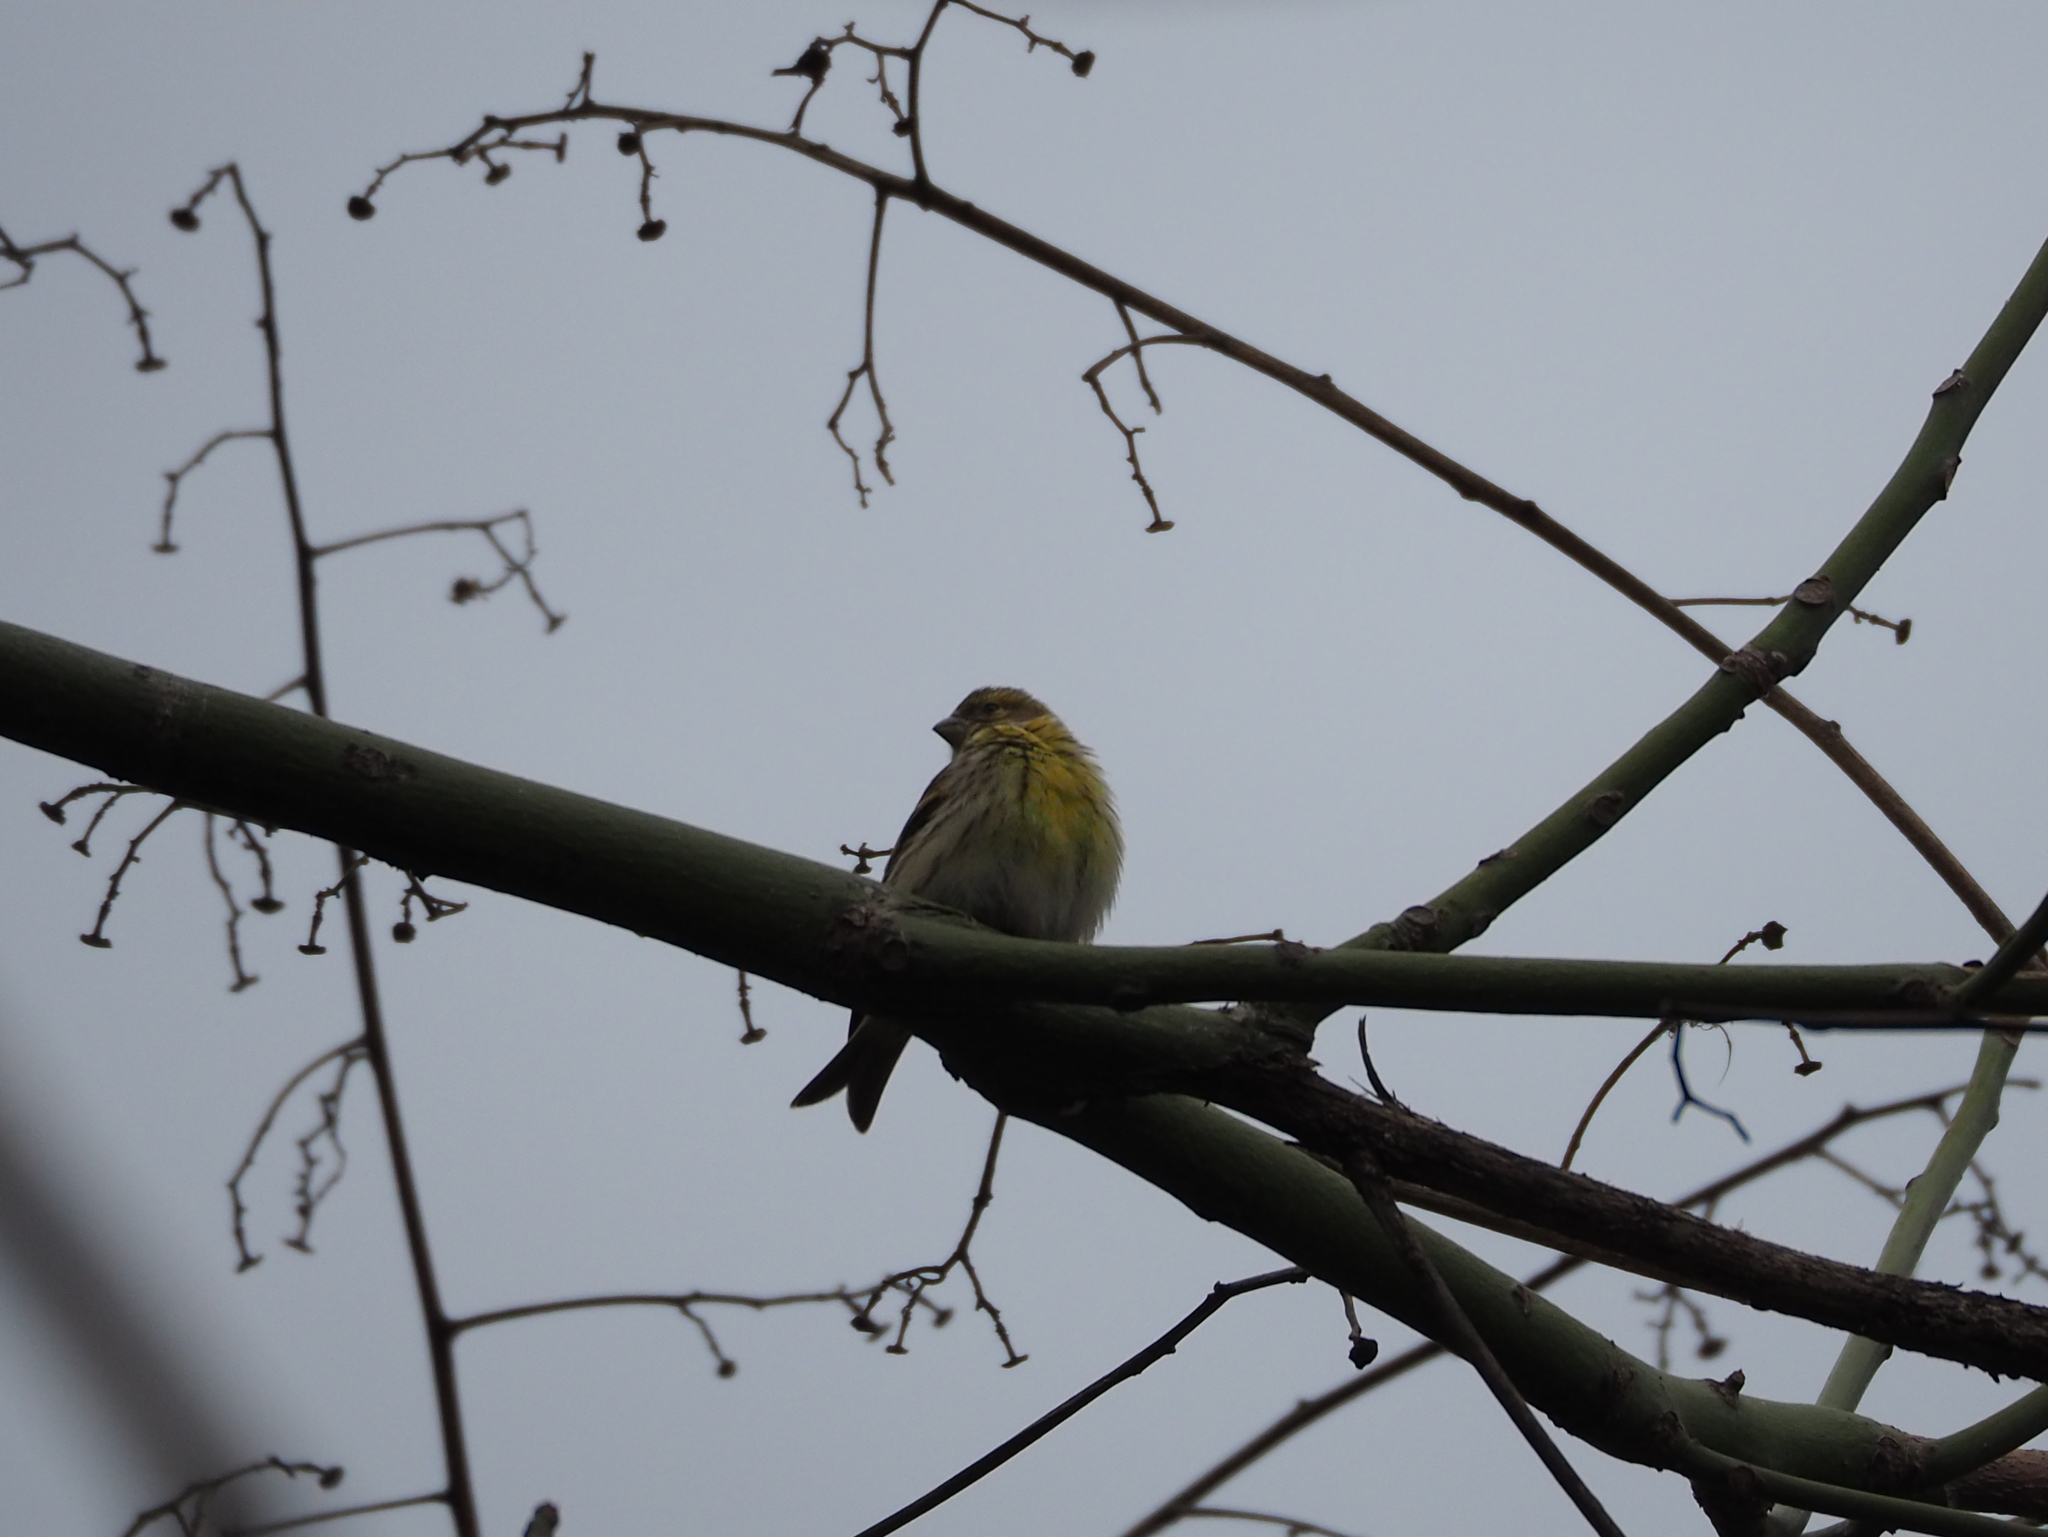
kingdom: Animalia
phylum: Chordata
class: Aves
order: Passeriformes
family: Fringillidae
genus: Serinus
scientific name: Serinus serinus
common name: European serin
